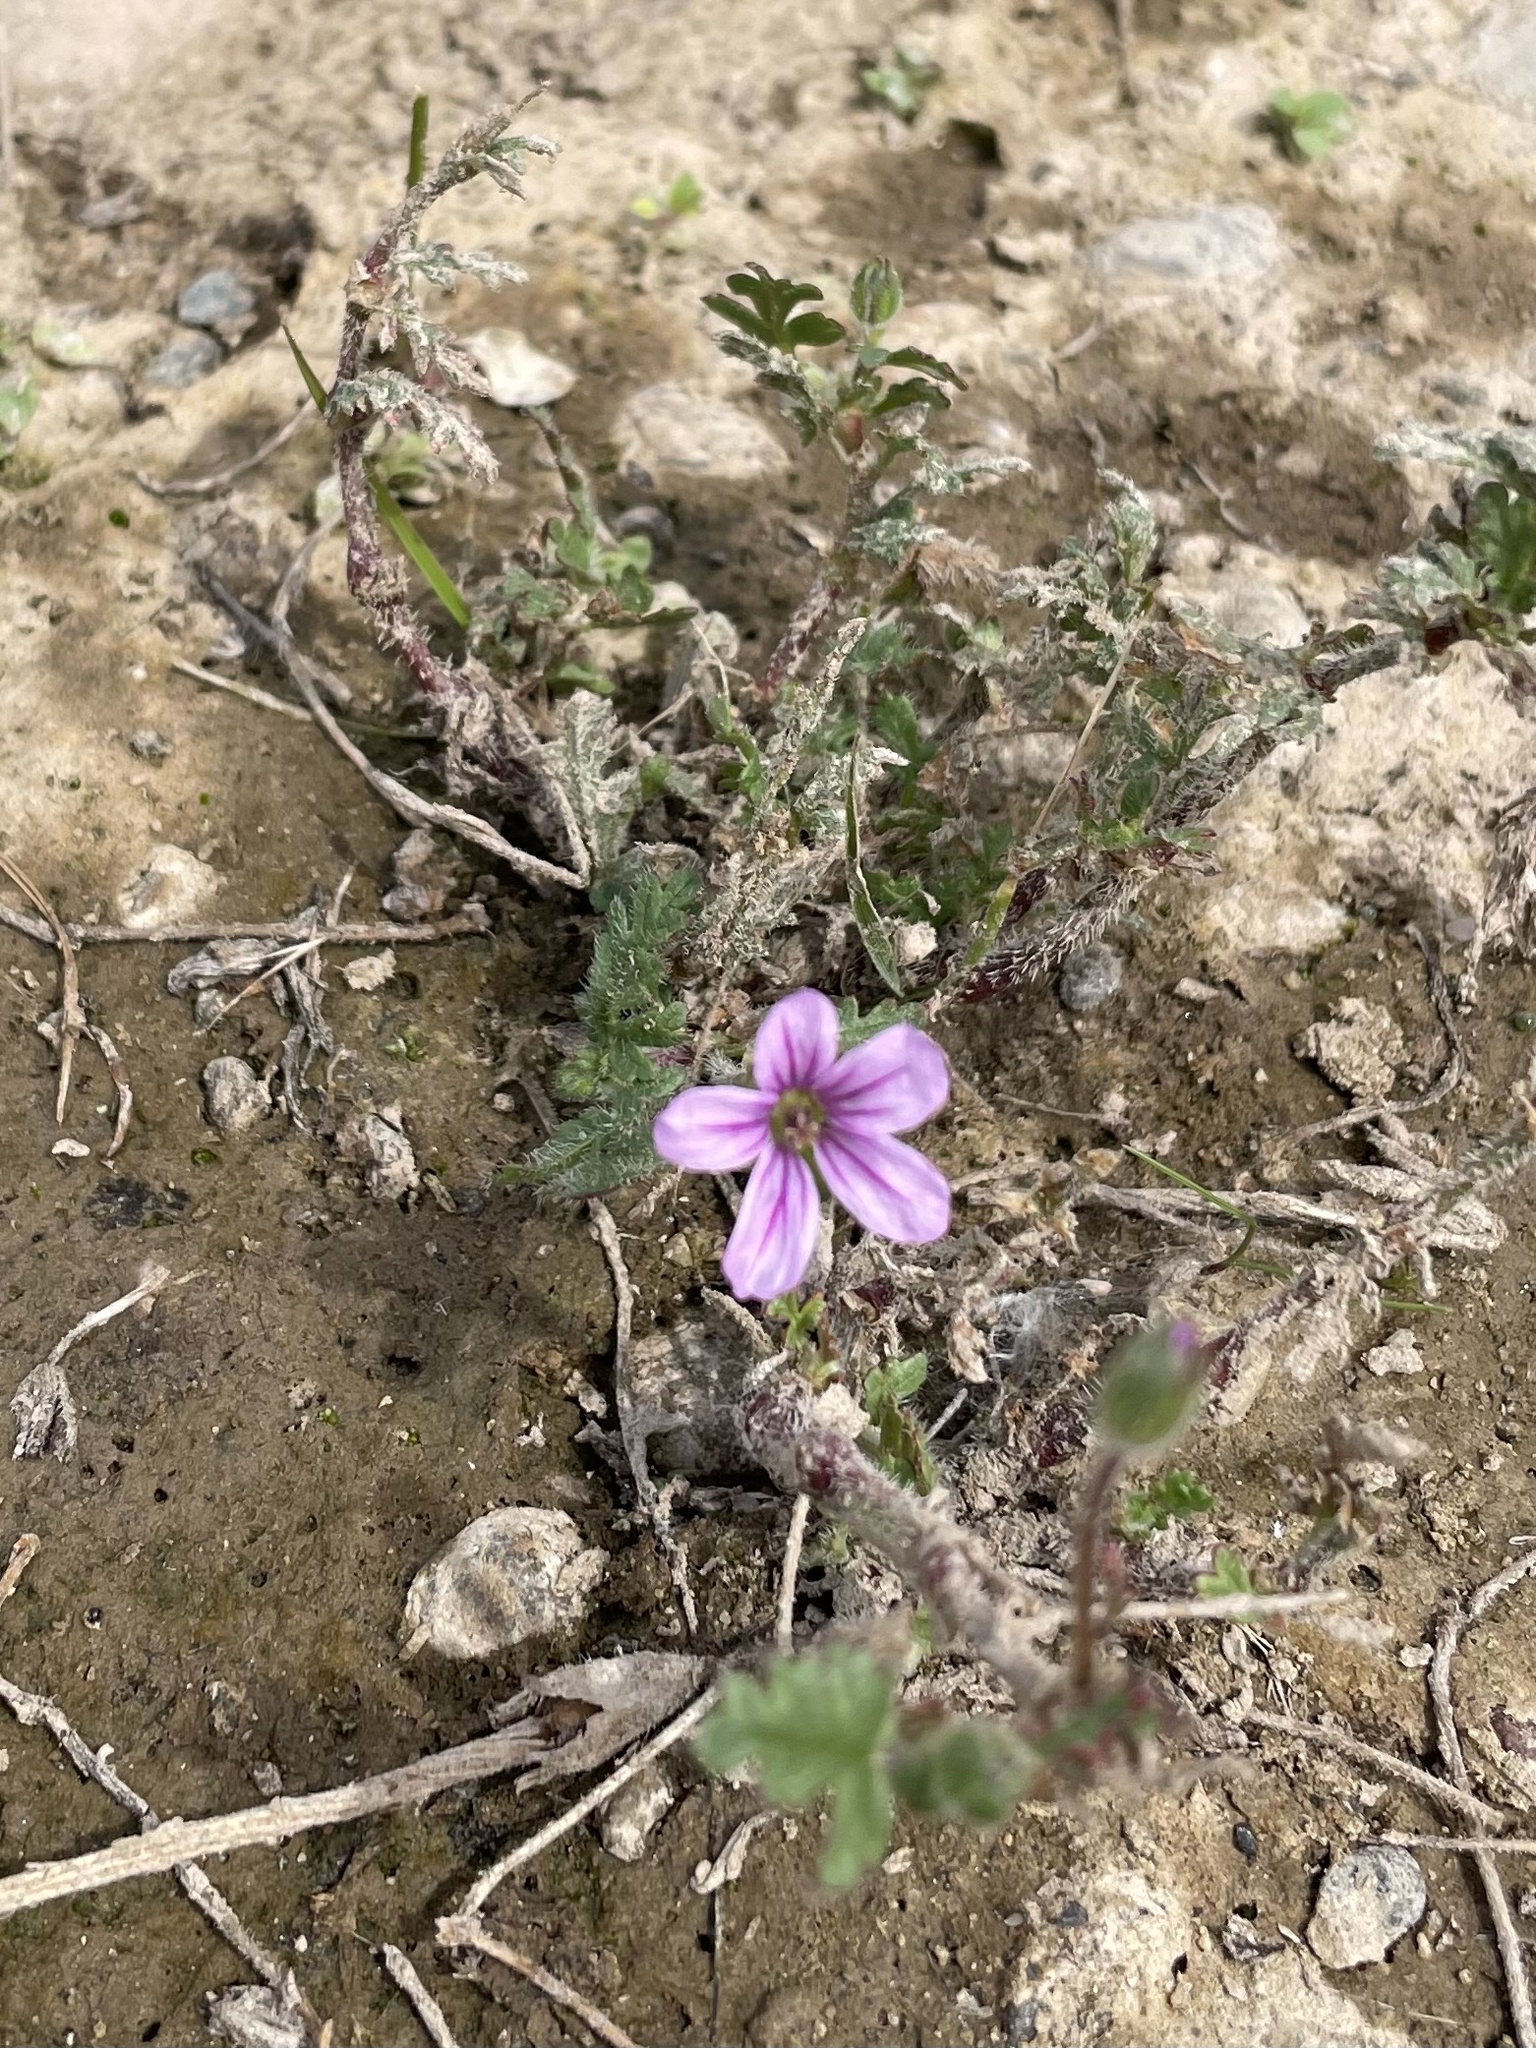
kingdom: Plantae
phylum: Tracheophyta
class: Magnoliopsida
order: Geraniales
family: Geraniaceae
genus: Erodium
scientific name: Erodium botrys
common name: Mediterranean stork's-bill
